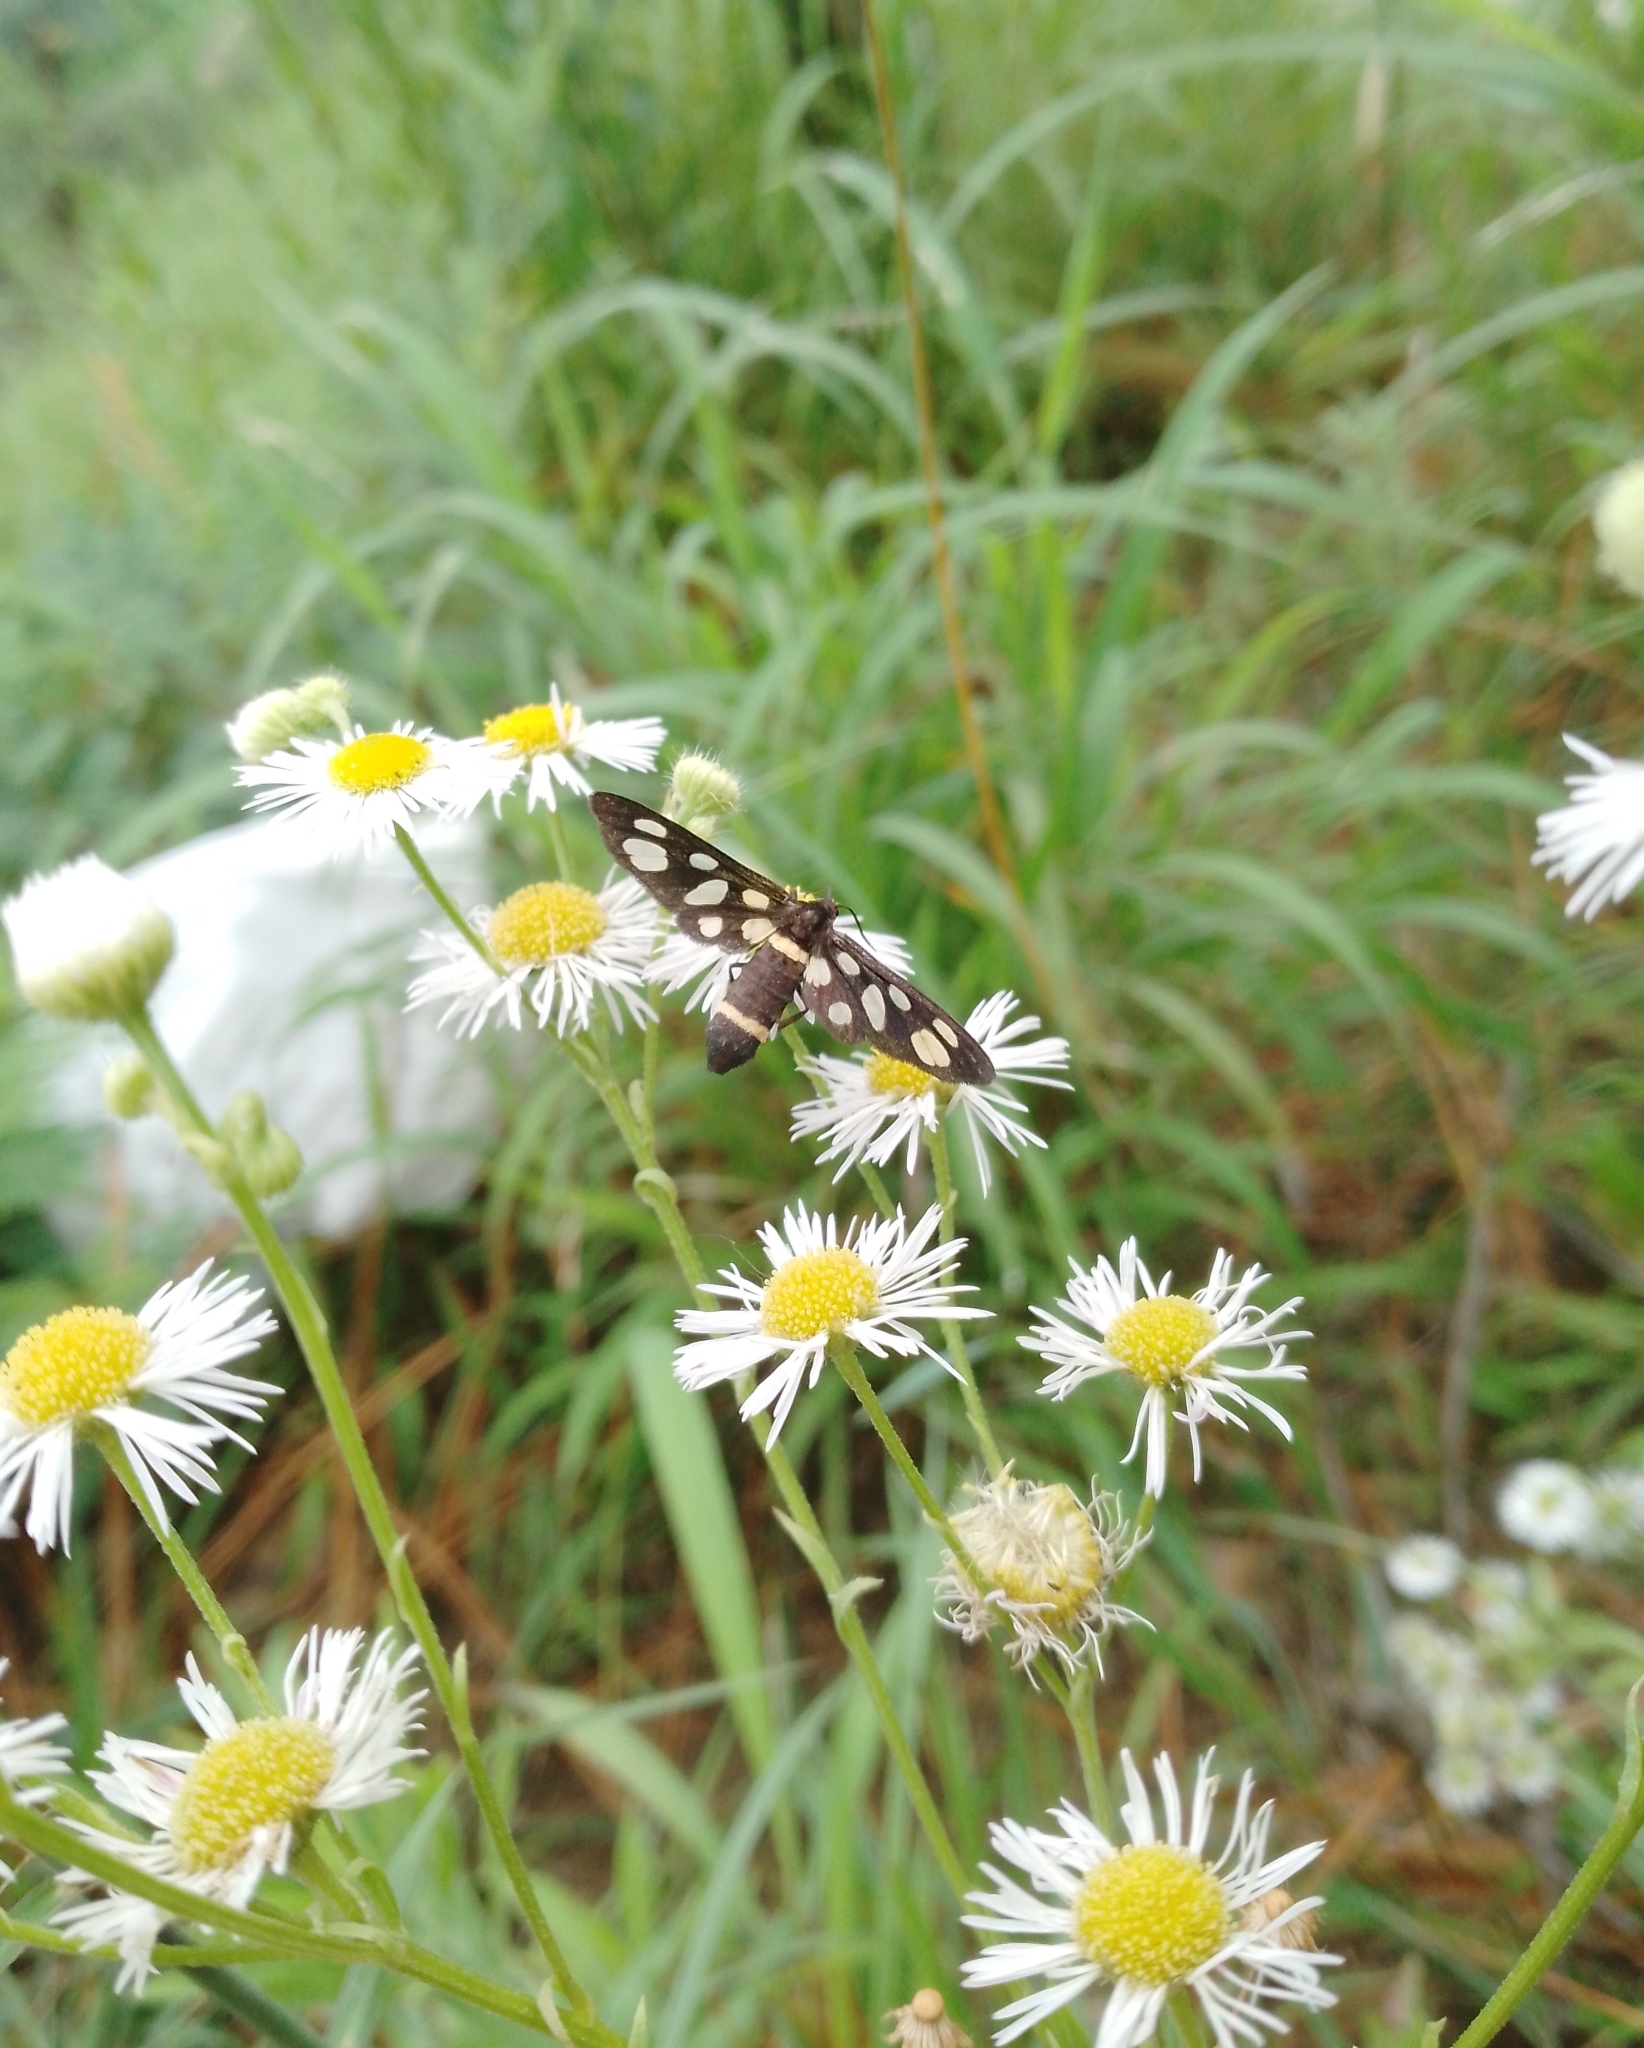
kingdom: Animalia
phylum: Arthropoda
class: Insecta
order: Lepidoptera
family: Erebidae
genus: Syntomoides
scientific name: Syntomoides imaon
